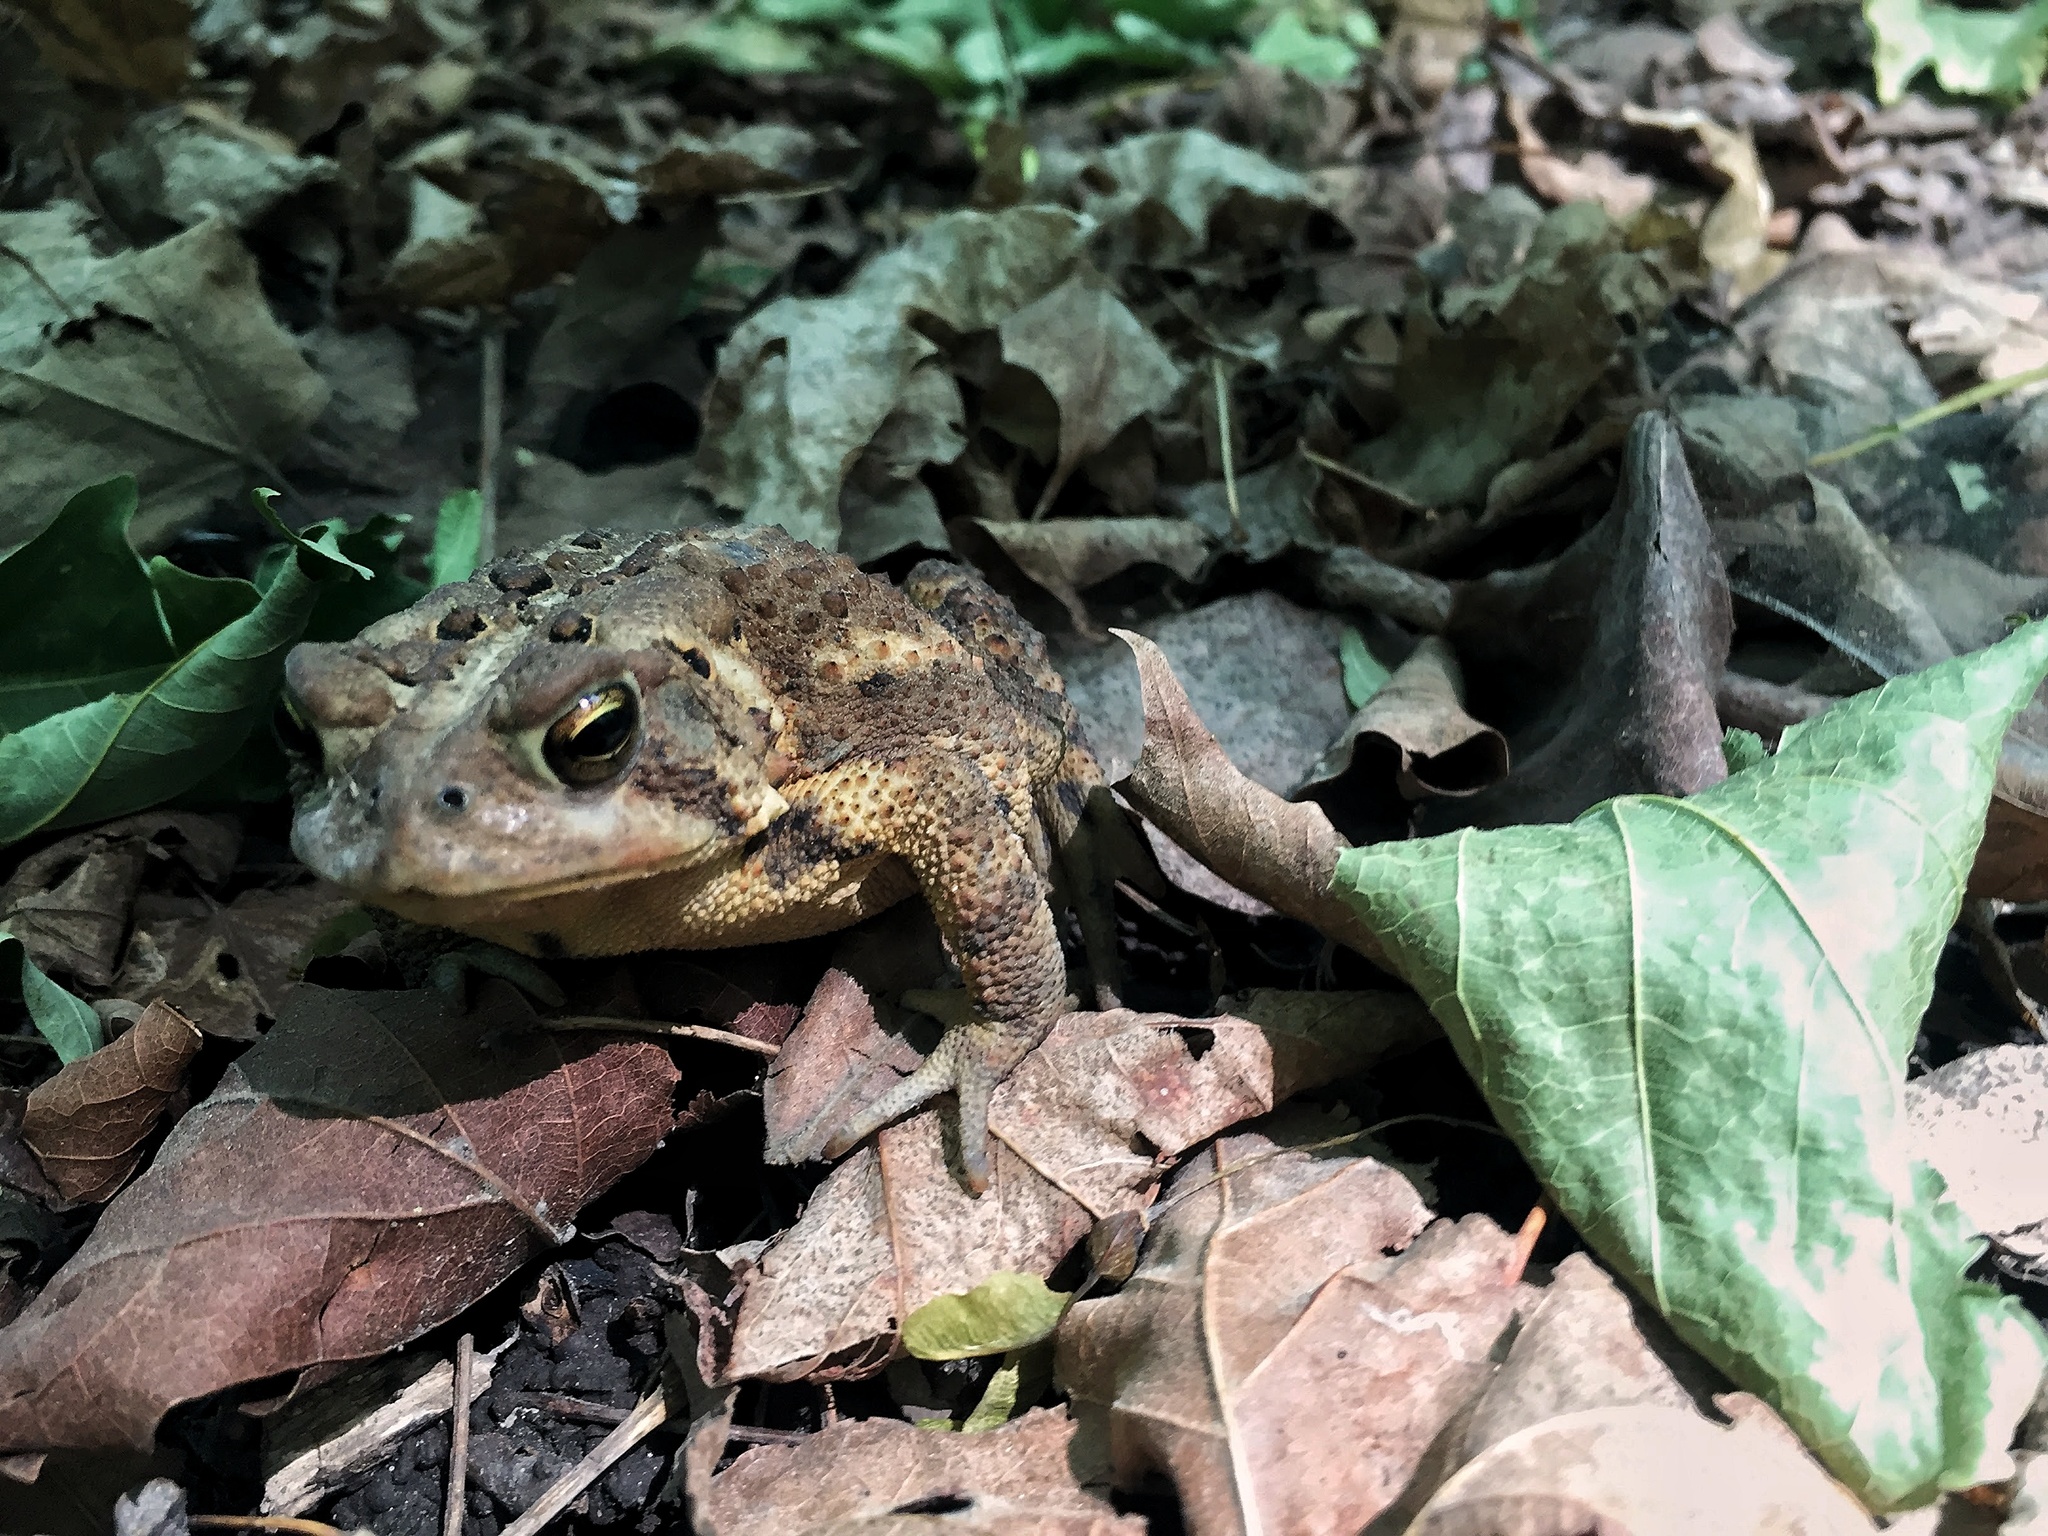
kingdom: Animalia
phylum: Chordata
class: Amphibia
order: Anura
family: Bufonidae
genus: Anaxyrus
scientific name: Anaxyrus americanus
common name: American toad
